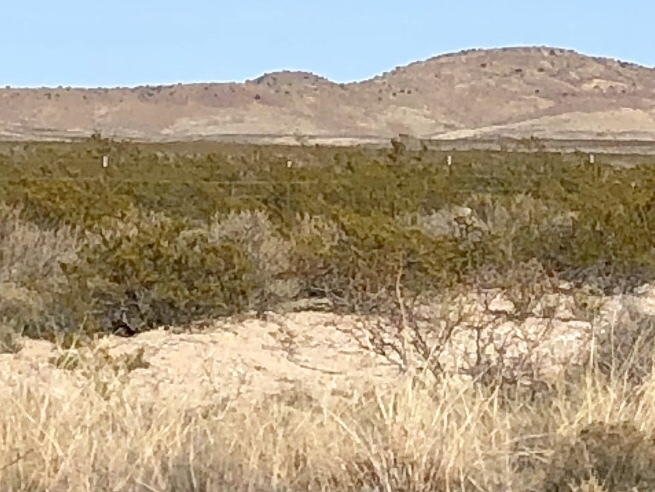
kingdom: Plantae
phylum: Tracheophyta
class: Magnoliopsida
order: Zygophyllales
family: Zygophyllaceae
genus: Larrea
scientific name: Larrea tridentata
